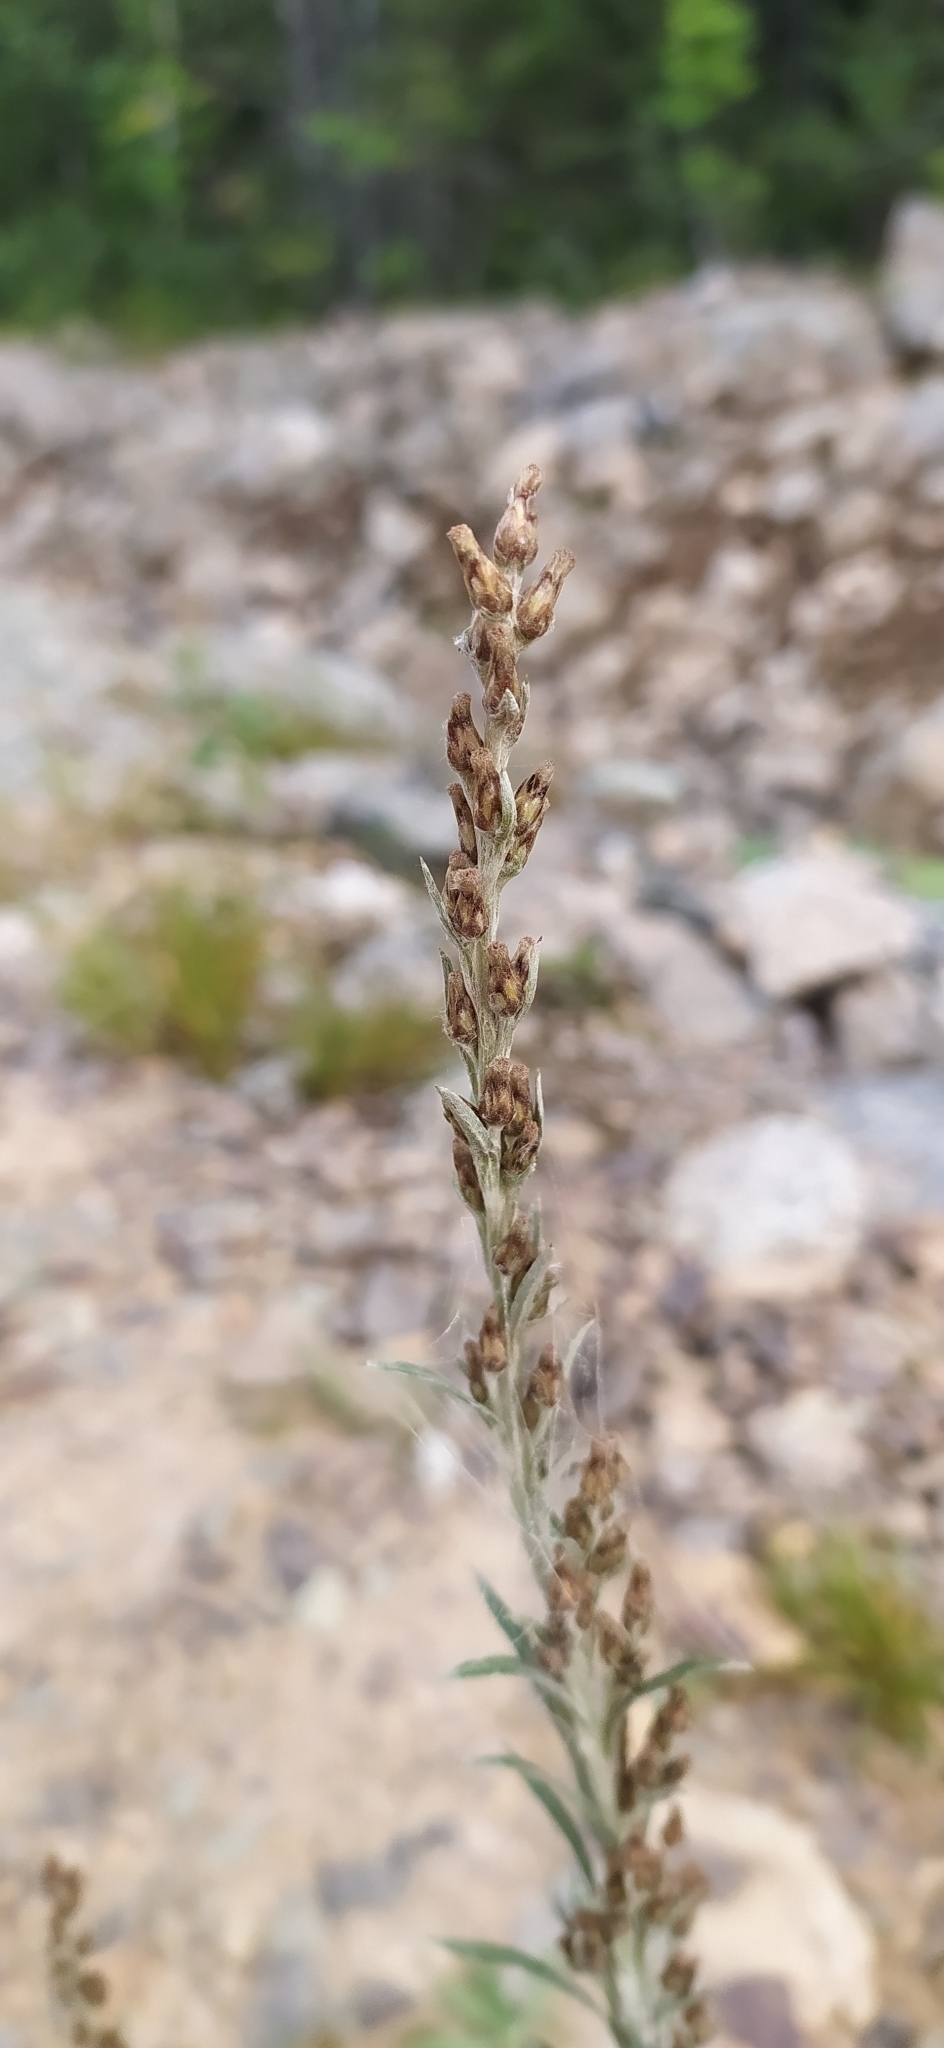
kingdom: Plantae
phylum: Tracheophyta
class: Magnoliopsida
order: Asterales
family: Asteraceae
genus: Omalotheca
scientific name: Omalotheca sylvatica
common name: Heath cudweed
